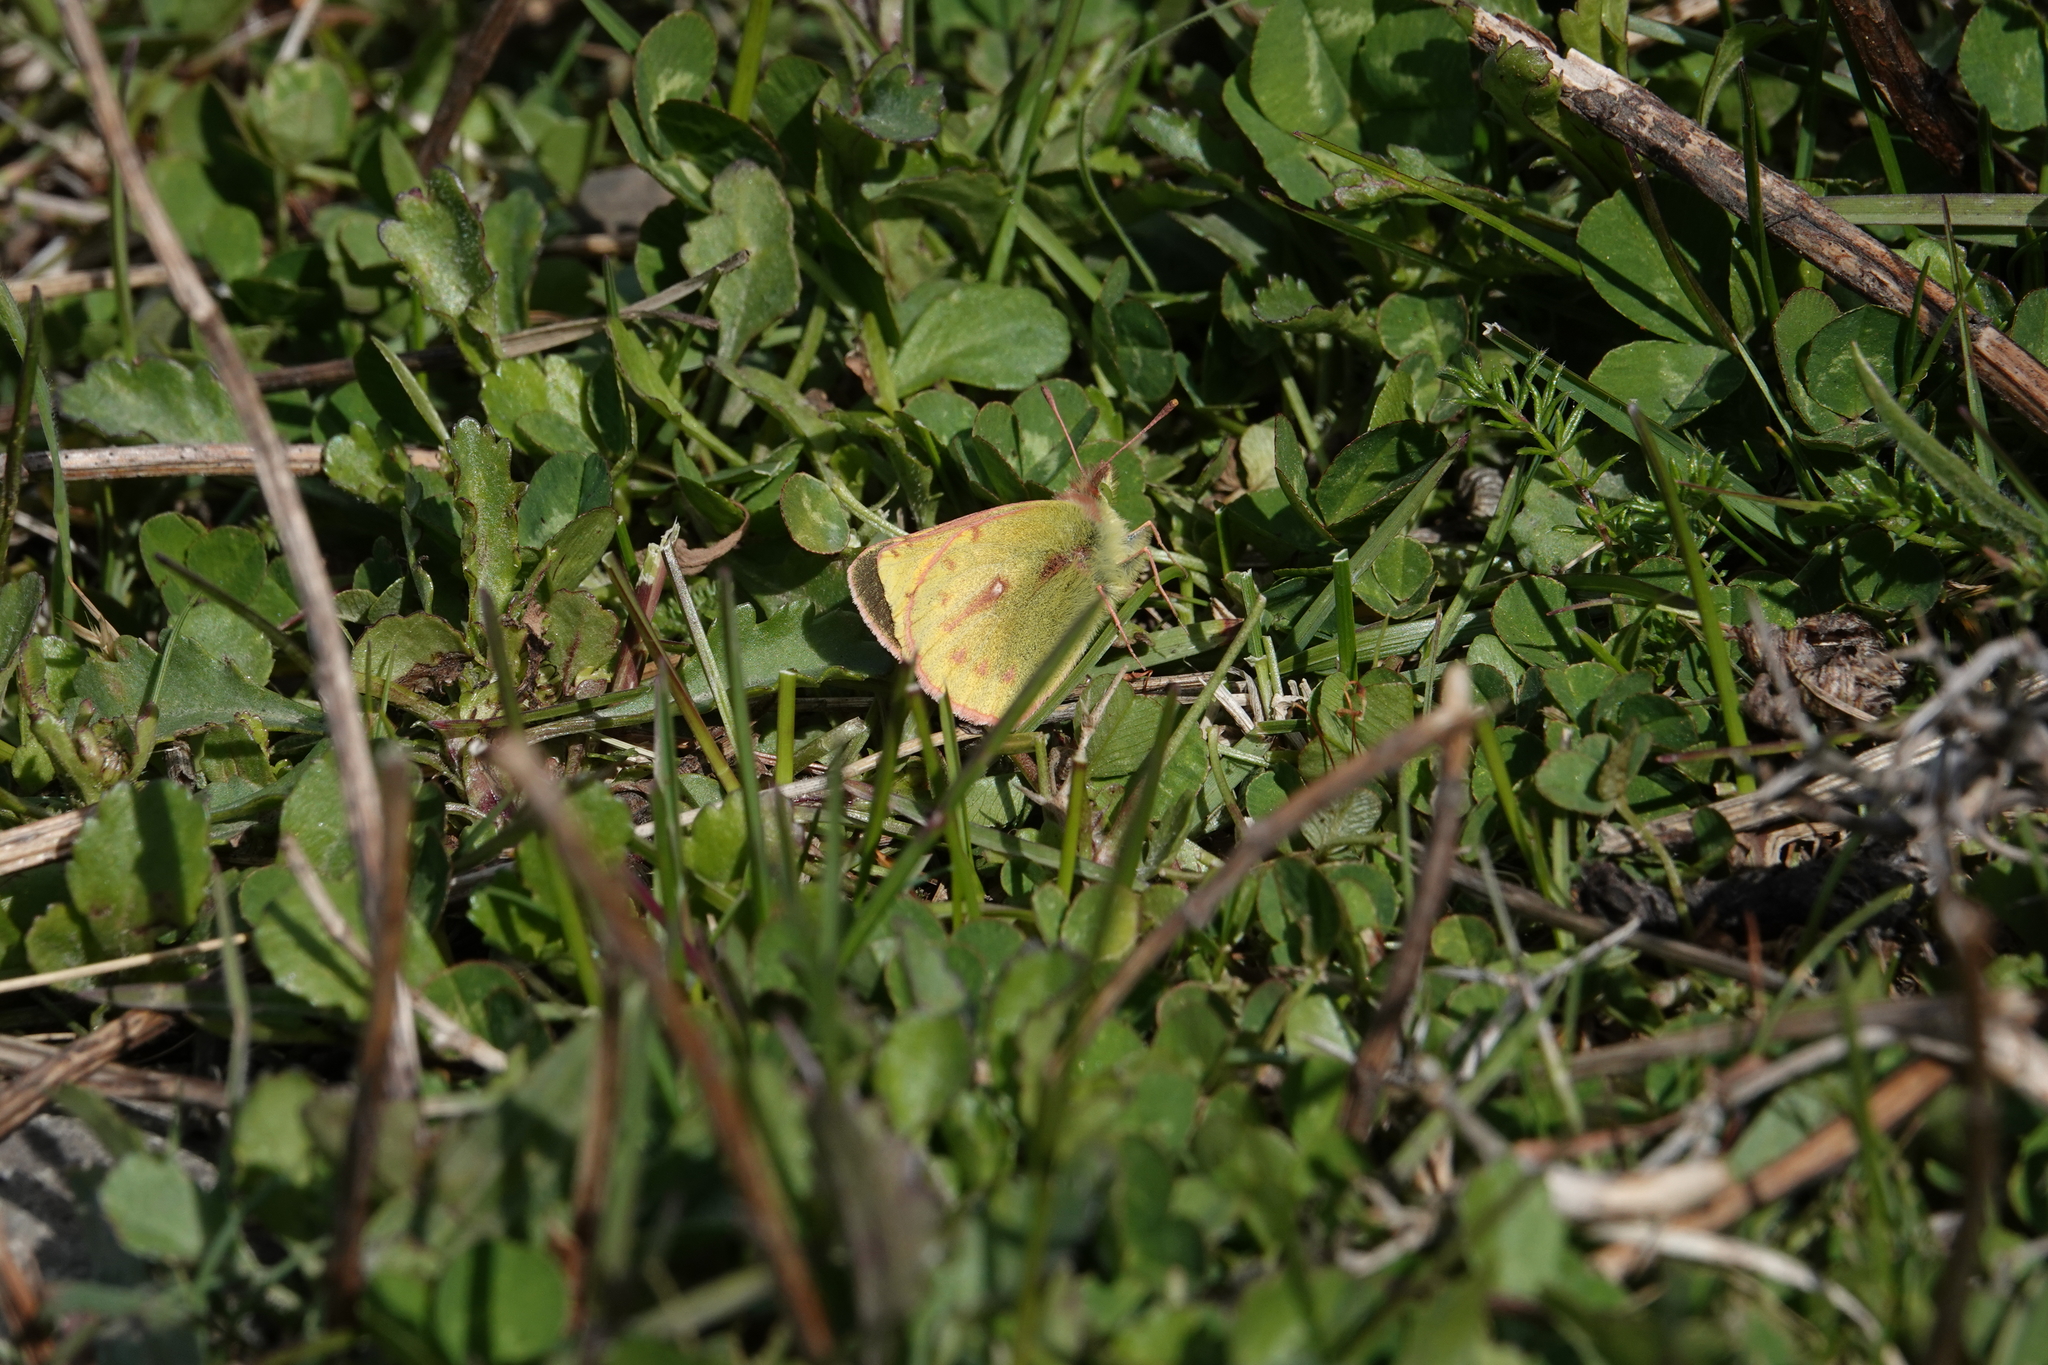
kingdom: Animalia
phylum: Arthropoda
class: Insecta
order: Lepidoptera
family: Pieridae
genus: Colias
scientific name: Colias vauthierii
